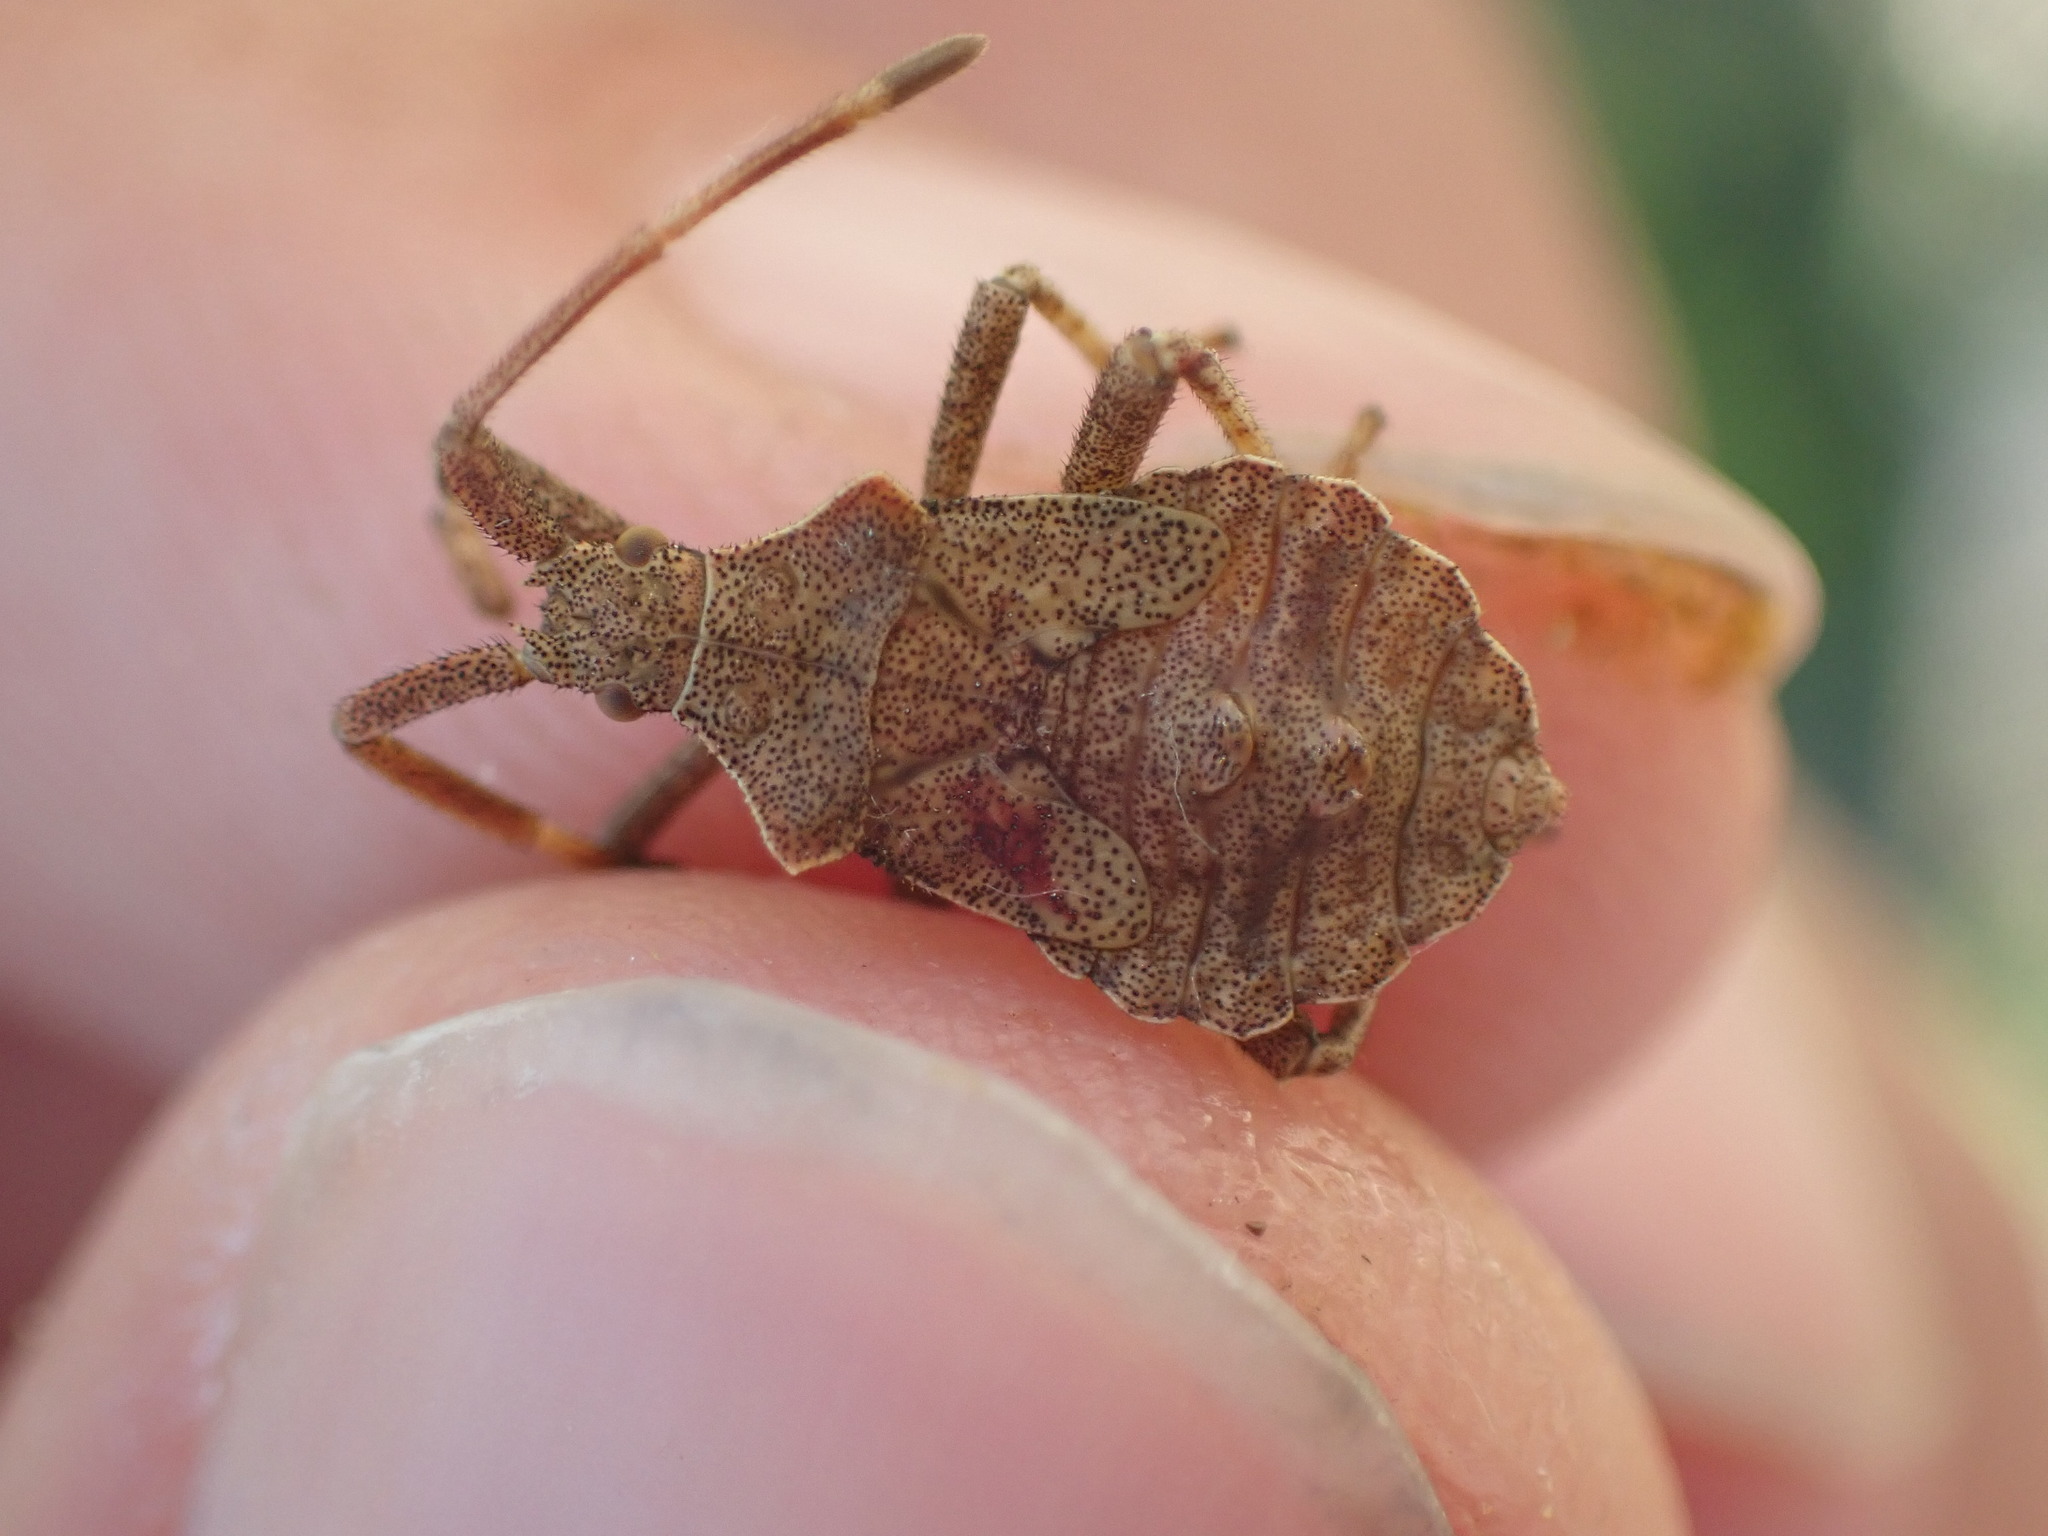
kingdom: Animalia
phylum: Arthropoda
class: Insecta
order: Hemiptera
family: Coreidae
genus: Coreus
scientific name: Coreus marginatus
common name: Dock bug
